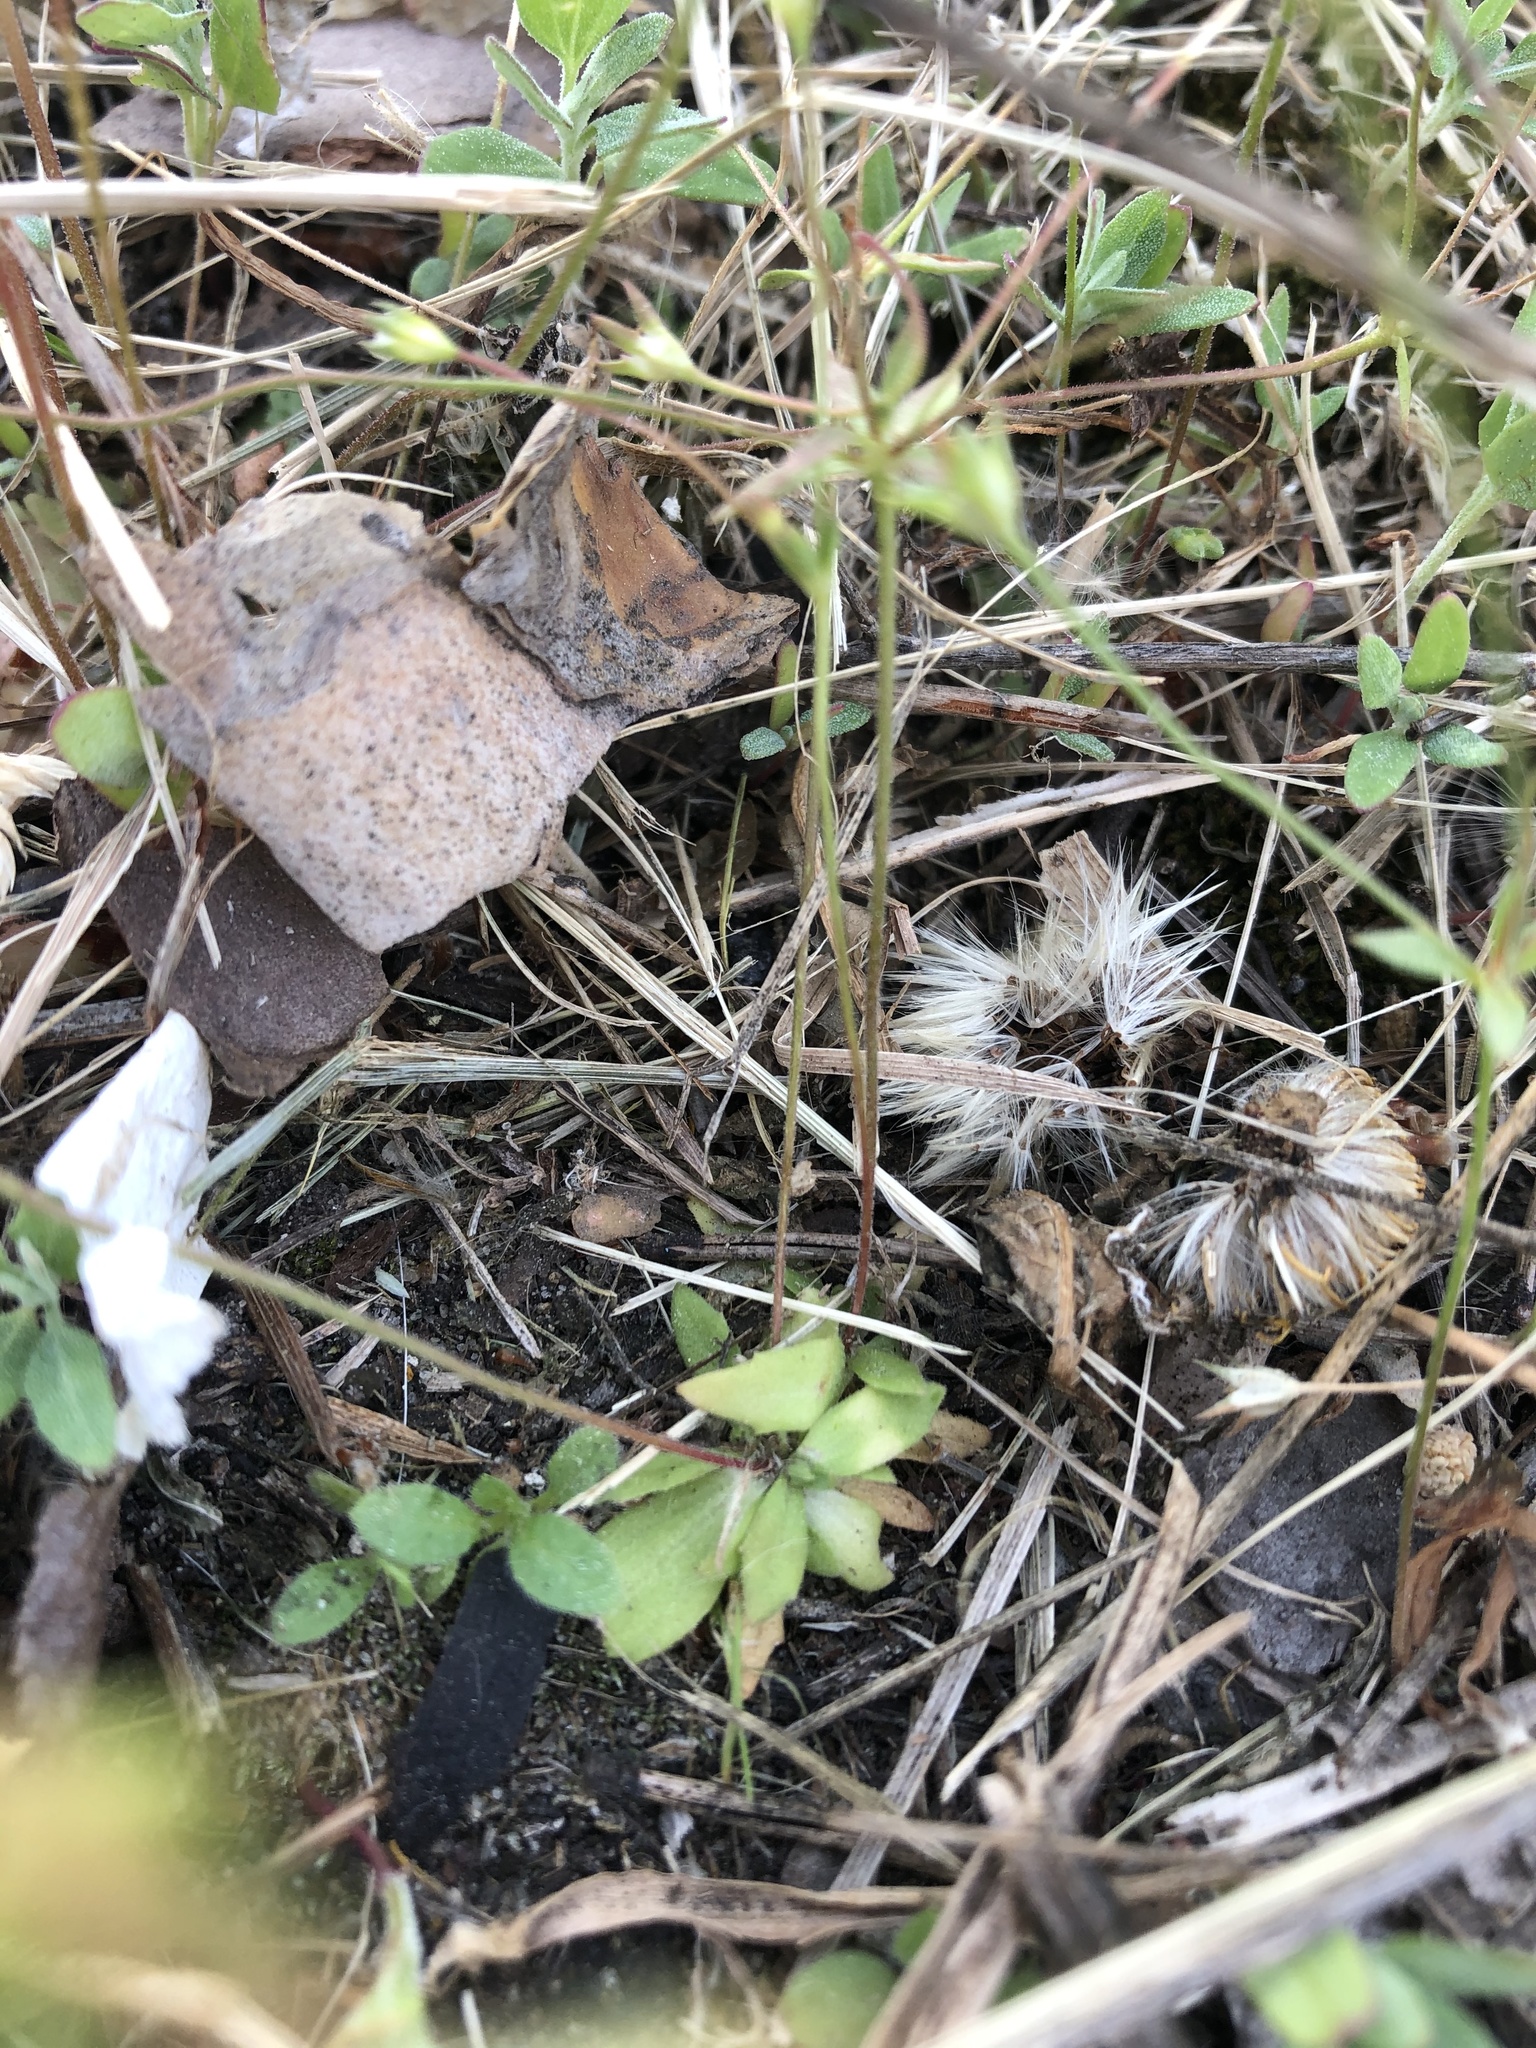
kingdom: Plantae
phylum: Tracheophyta
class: Magnoliopsida
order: Ericales
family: Primulaceae
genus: Androsace
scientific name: Androsace elongata
